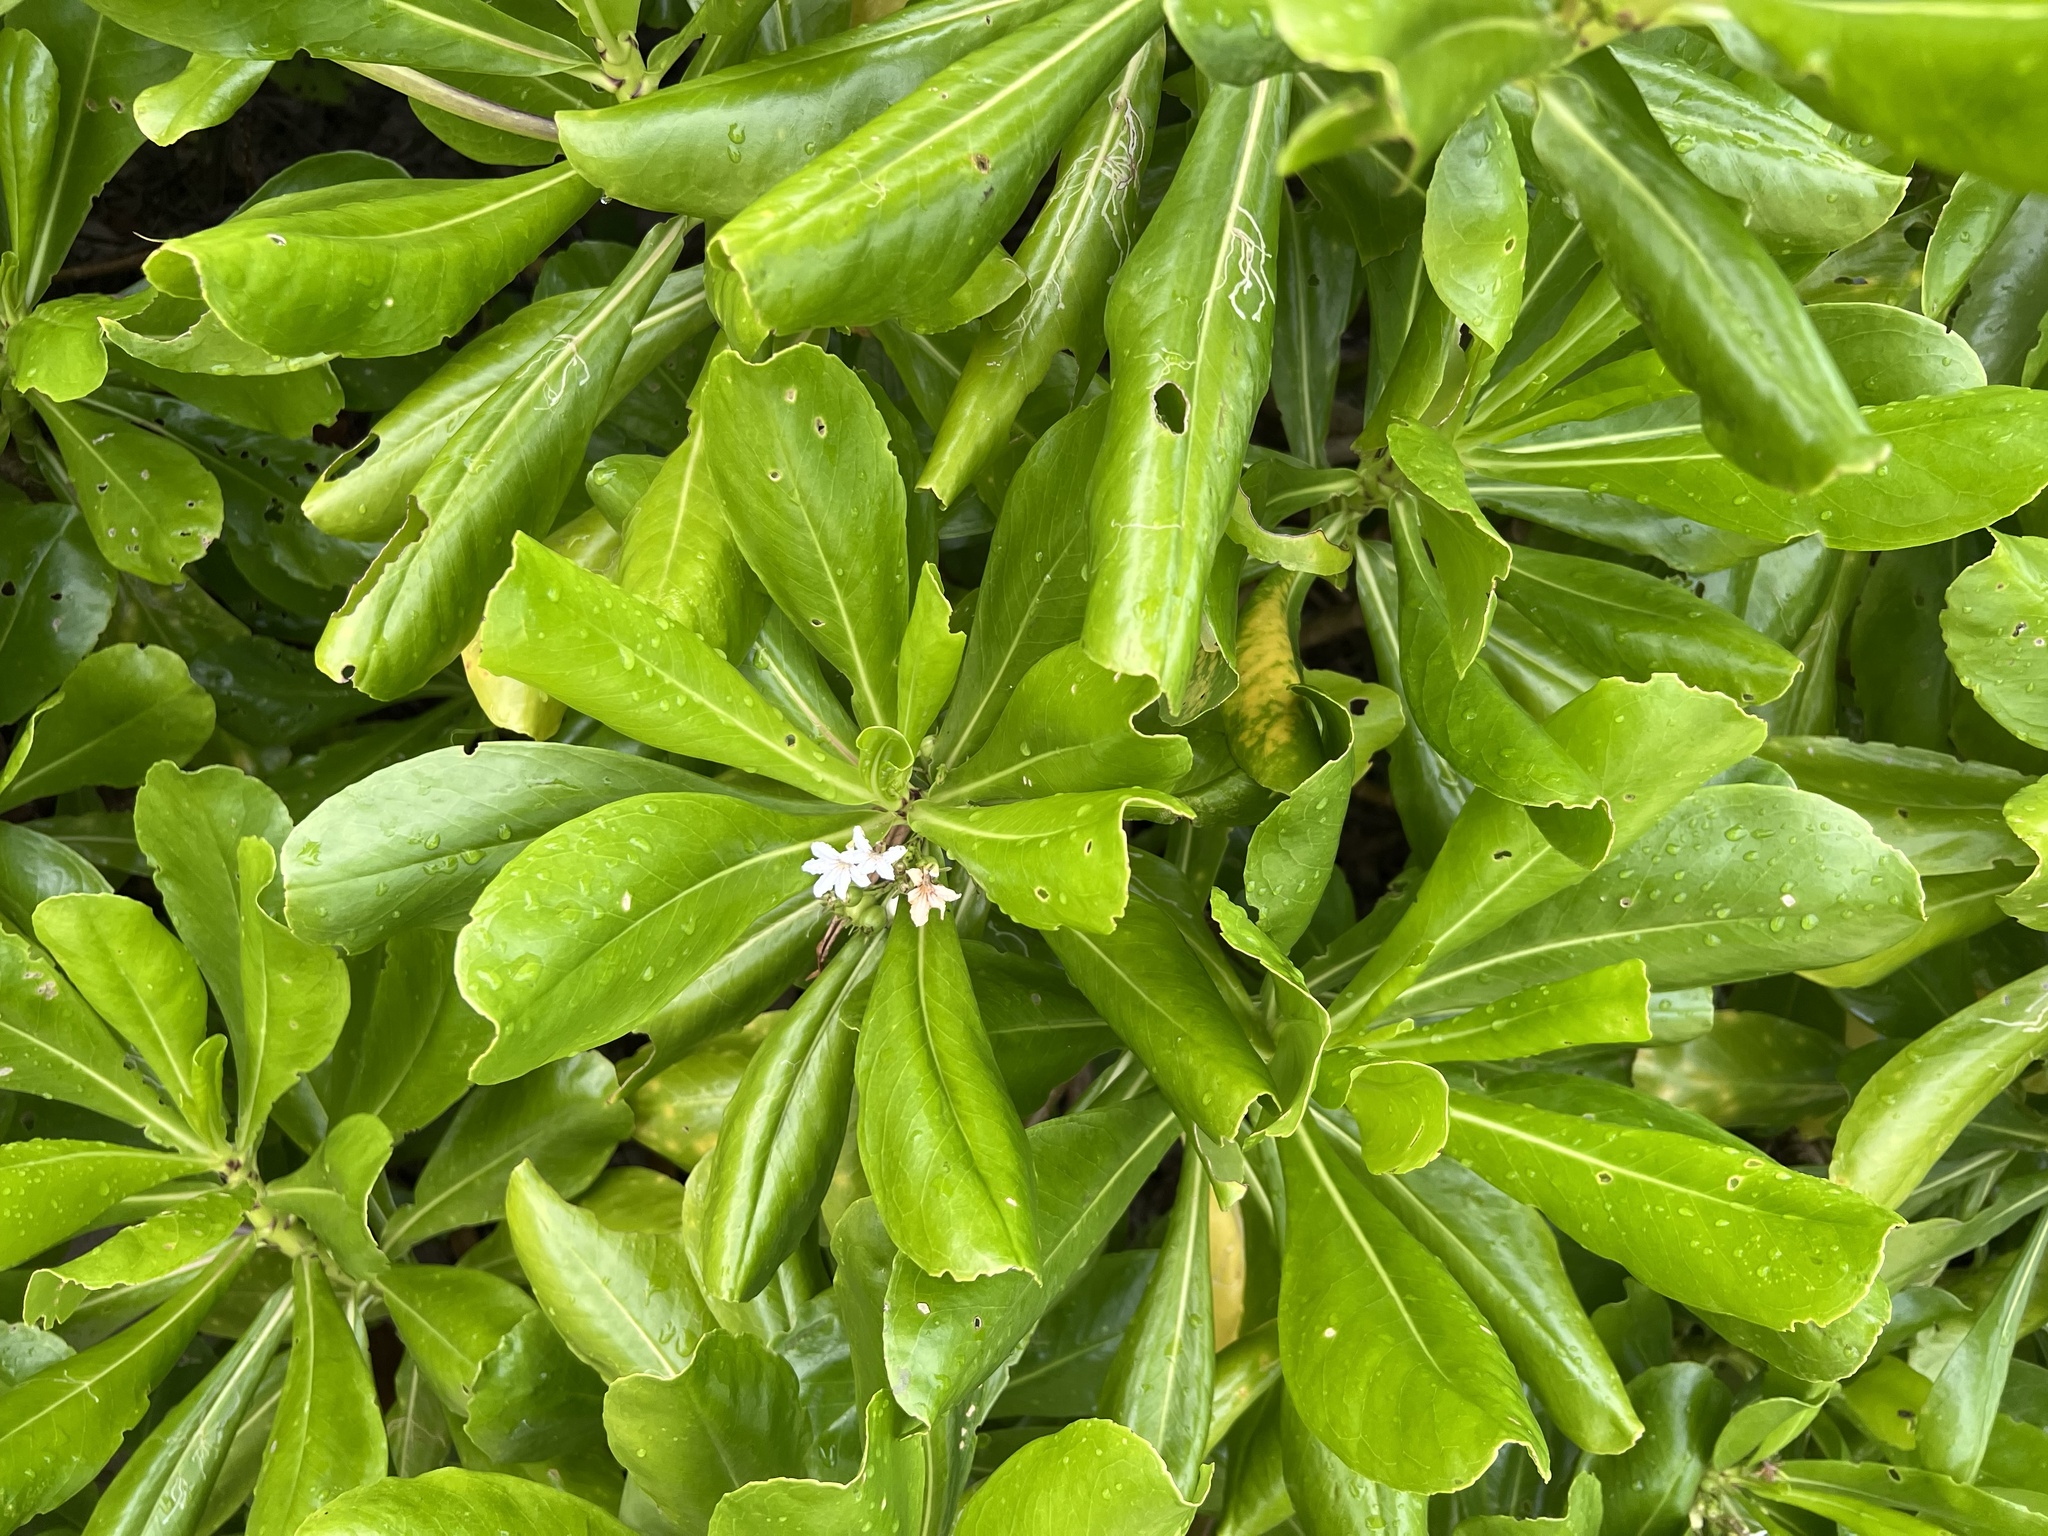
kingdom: Plantae
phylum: Tracheophyta
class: Magnoliopsida
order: Asterales
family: Goodeniaceae
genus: Scaevola
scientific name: Scaevola taccada
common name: Sea lettucetree
